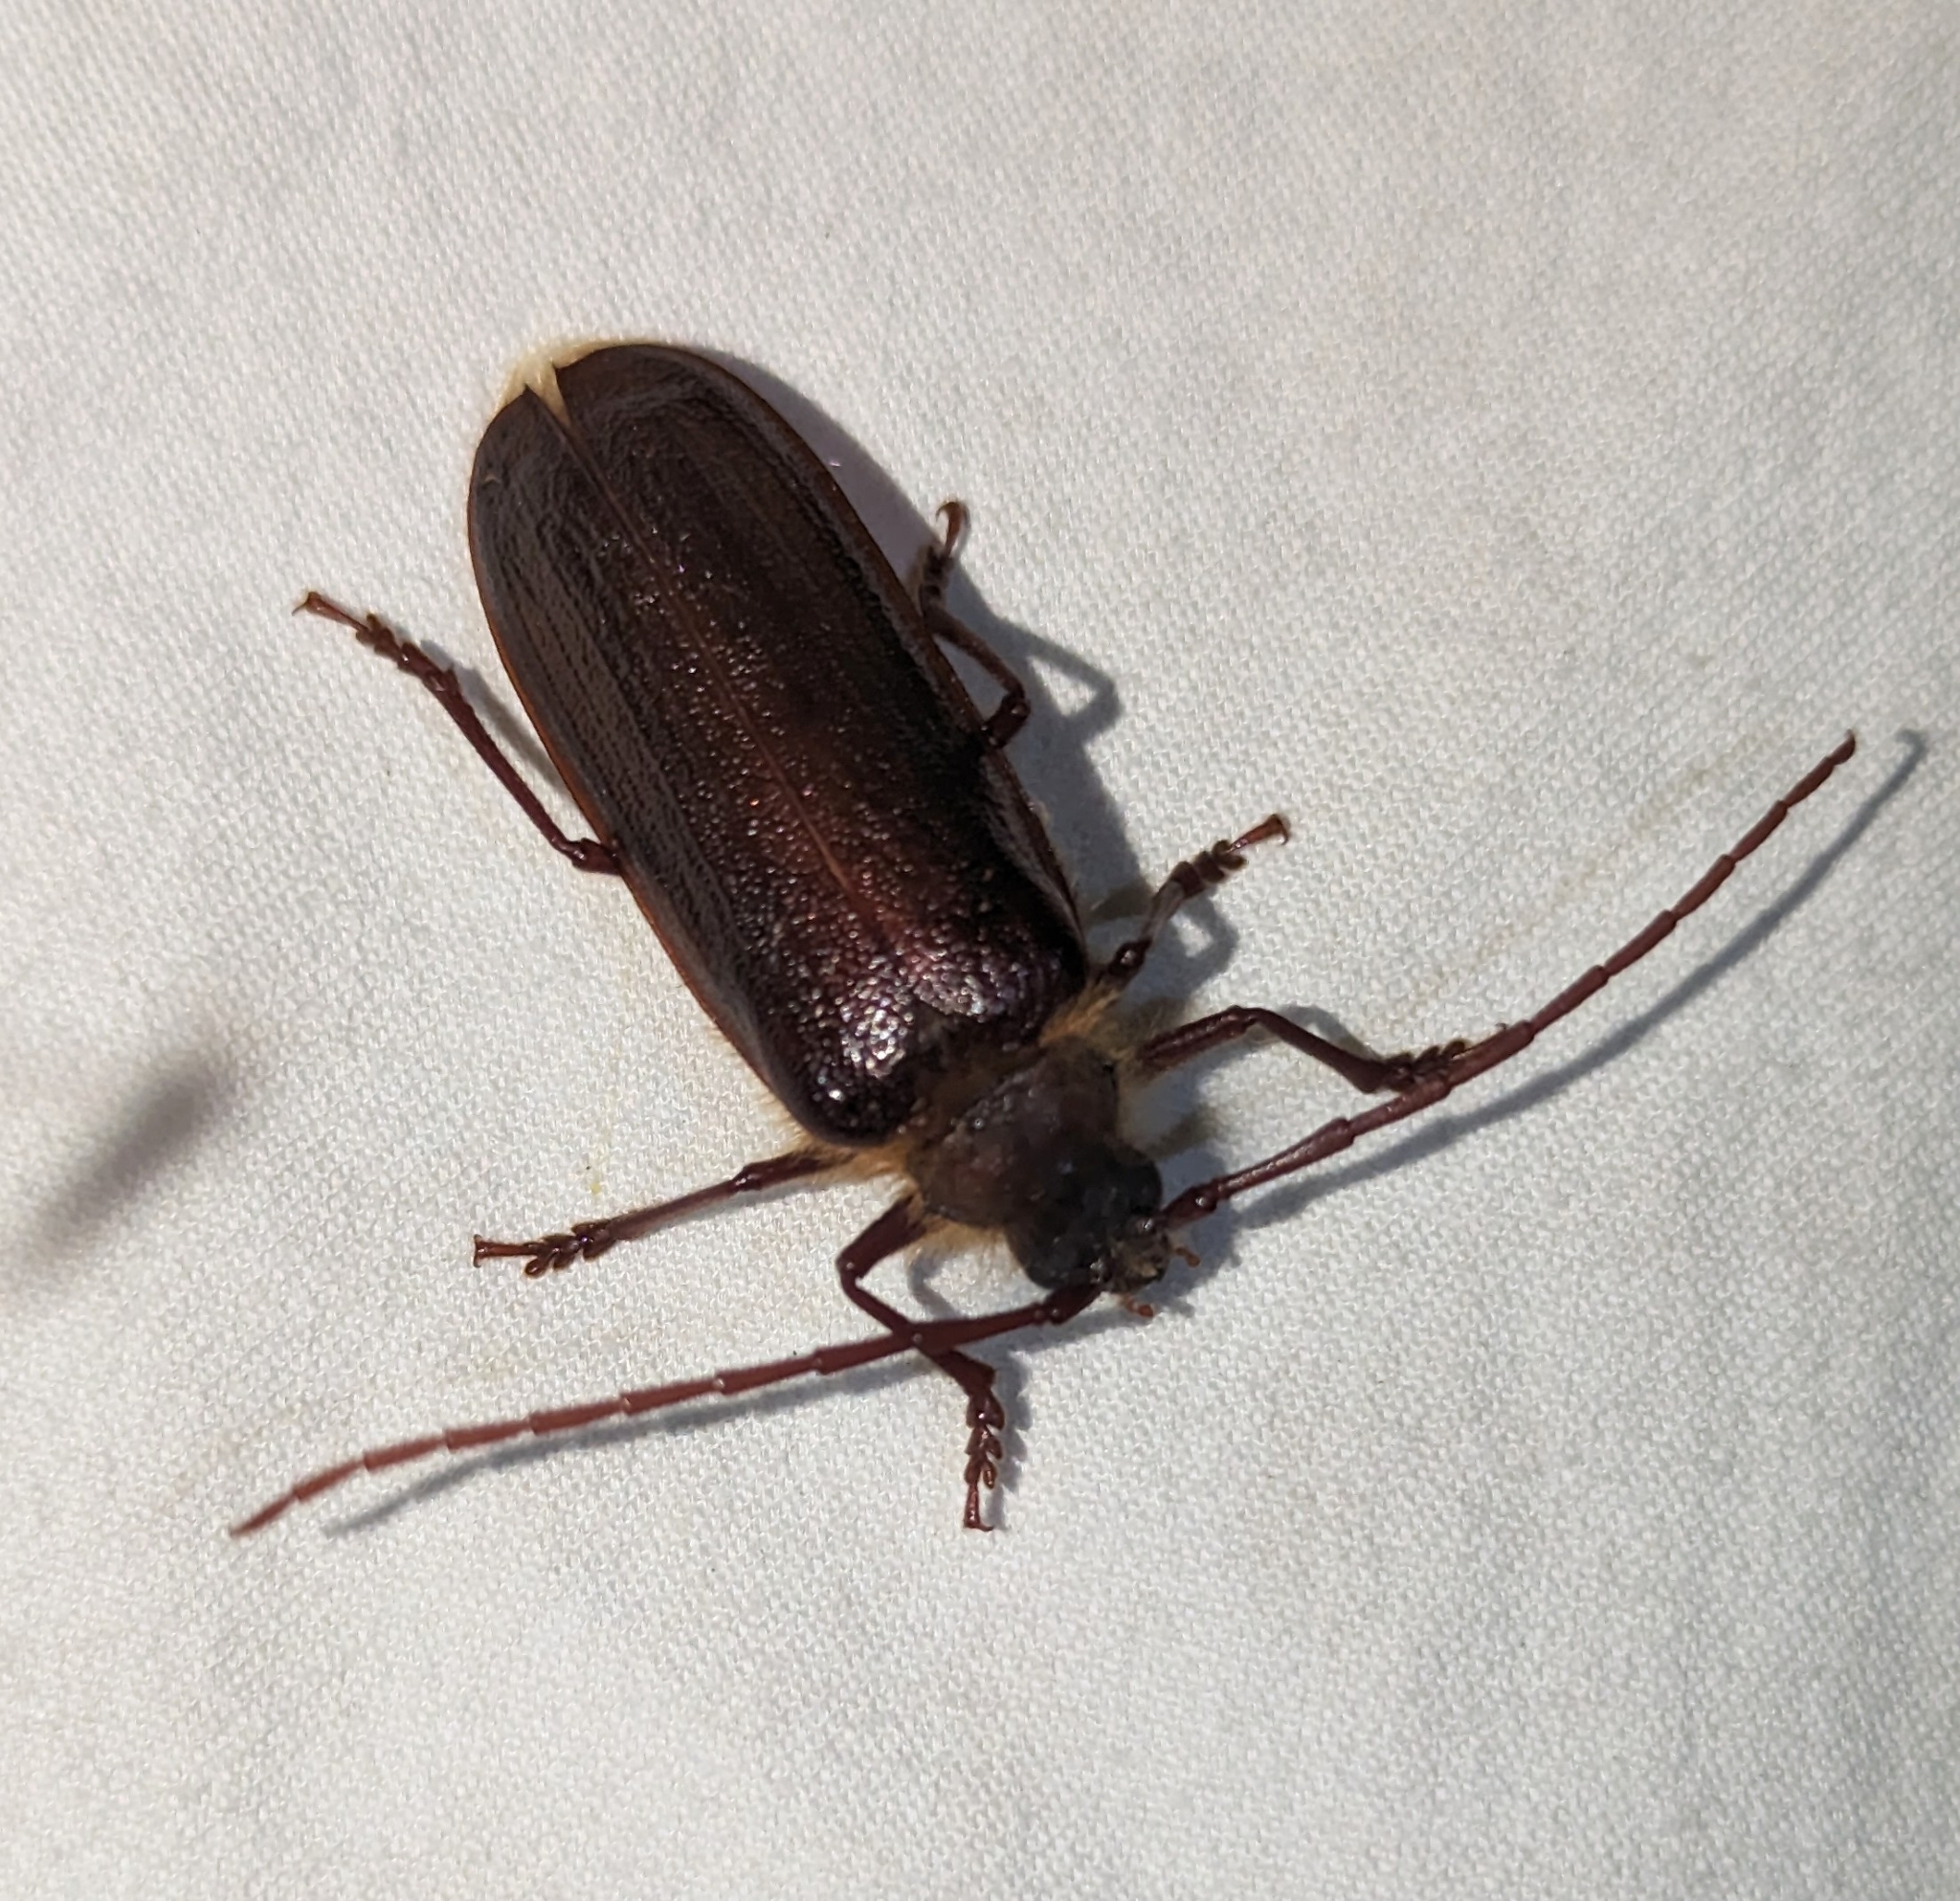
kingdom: Animalia
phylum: Arthropoda
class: Insecta
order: Coleoptera
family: Cerambycidae
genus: Tragosoma
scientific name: Tragosoma harrisii
